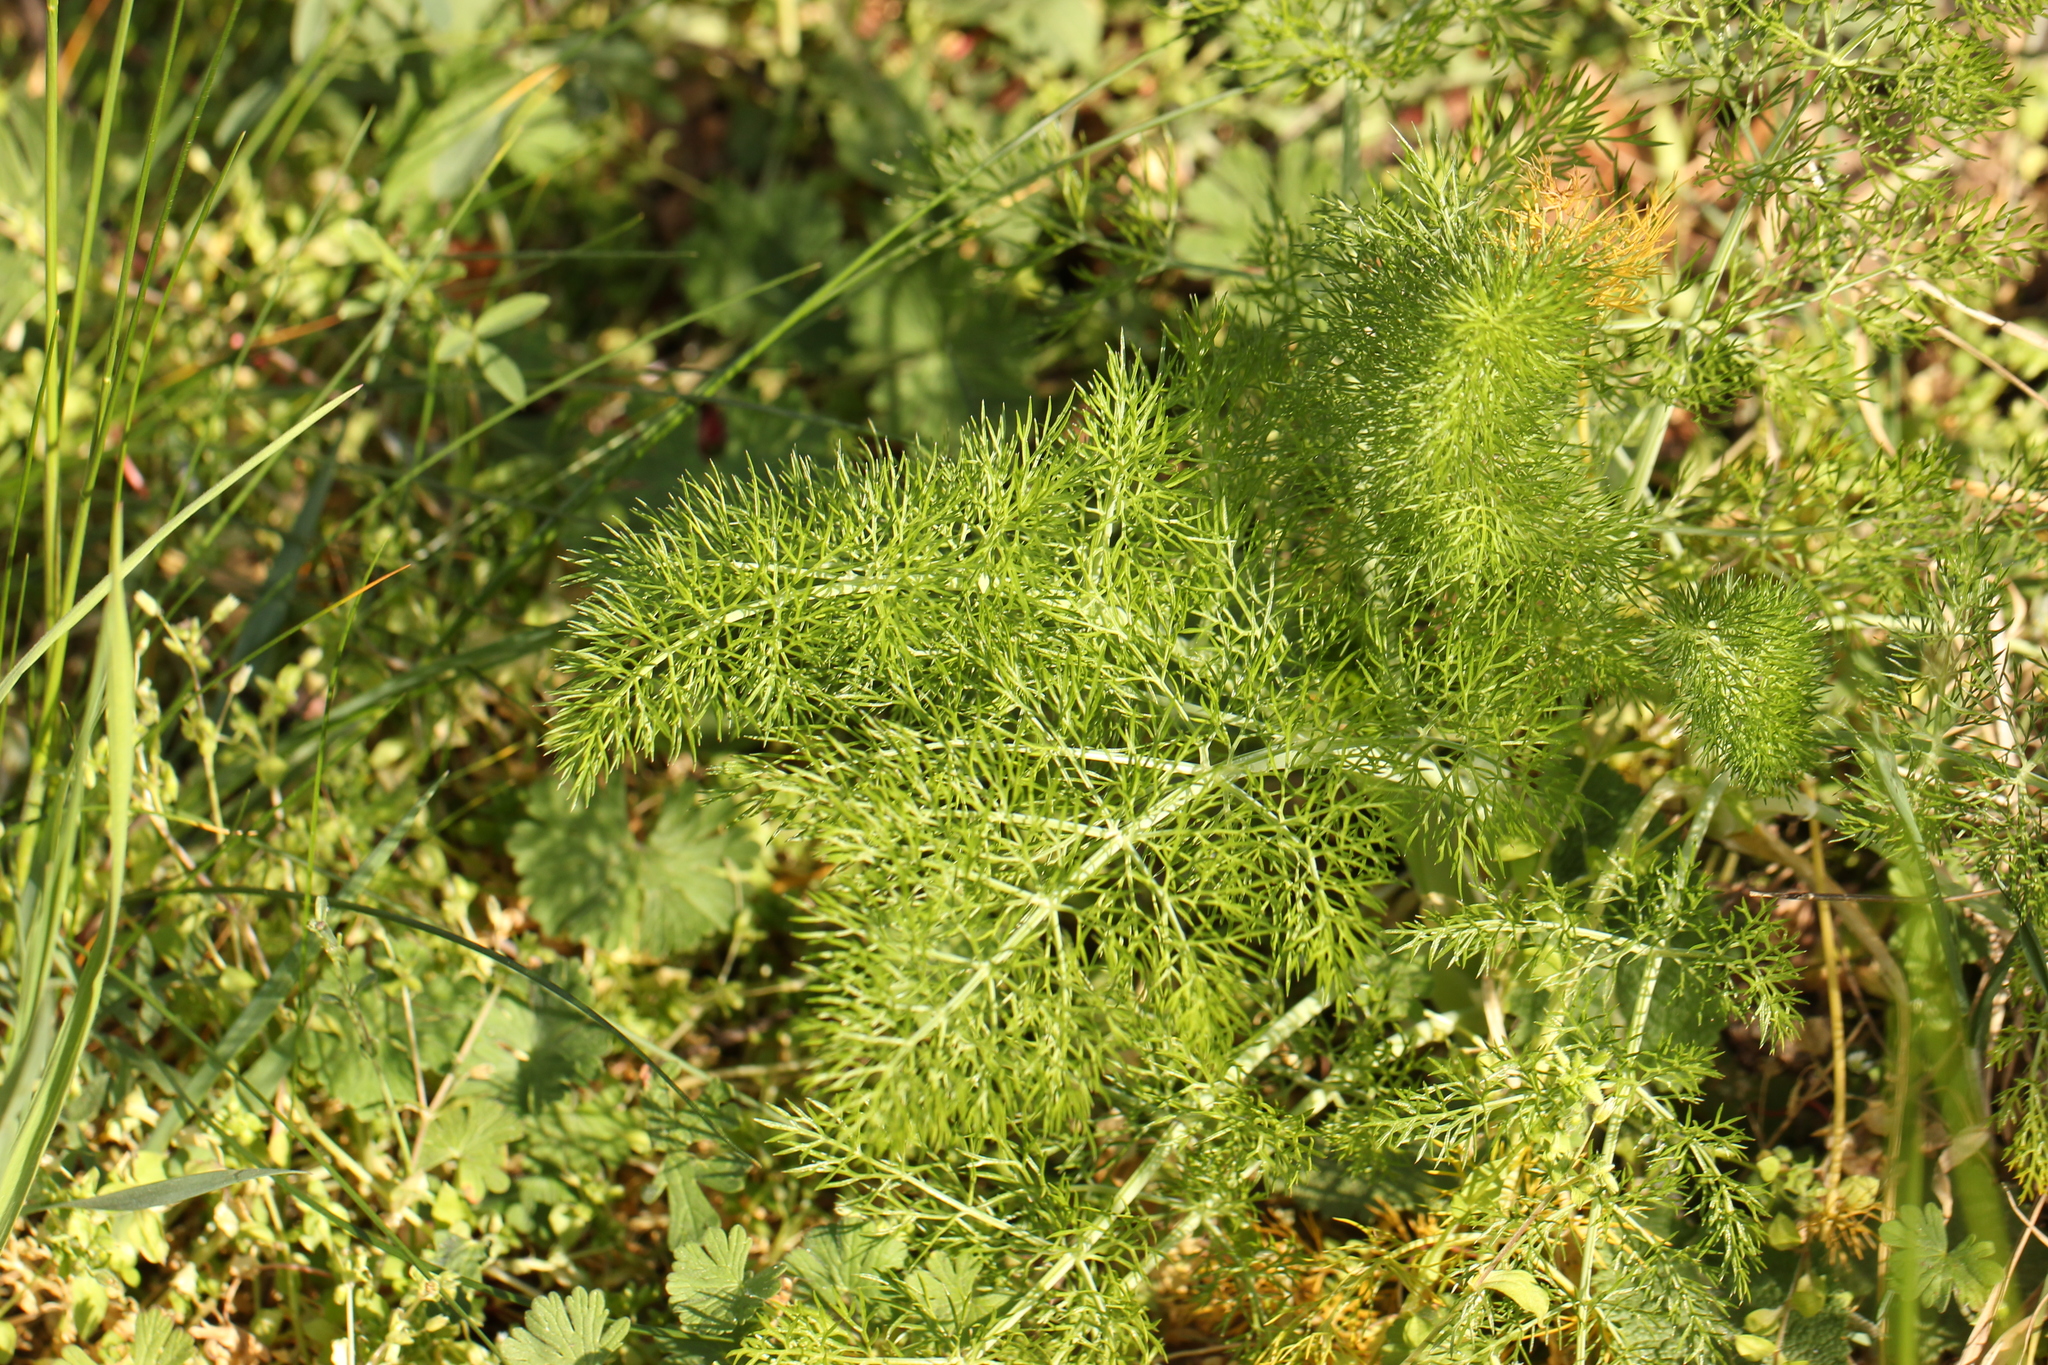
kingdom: Plantae
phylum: Tracheophyta
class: Magnoliopsida
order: Apiales
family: Apiaceae
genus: Foeniculum
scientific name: Foeniculum vulgare
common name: Fennel
